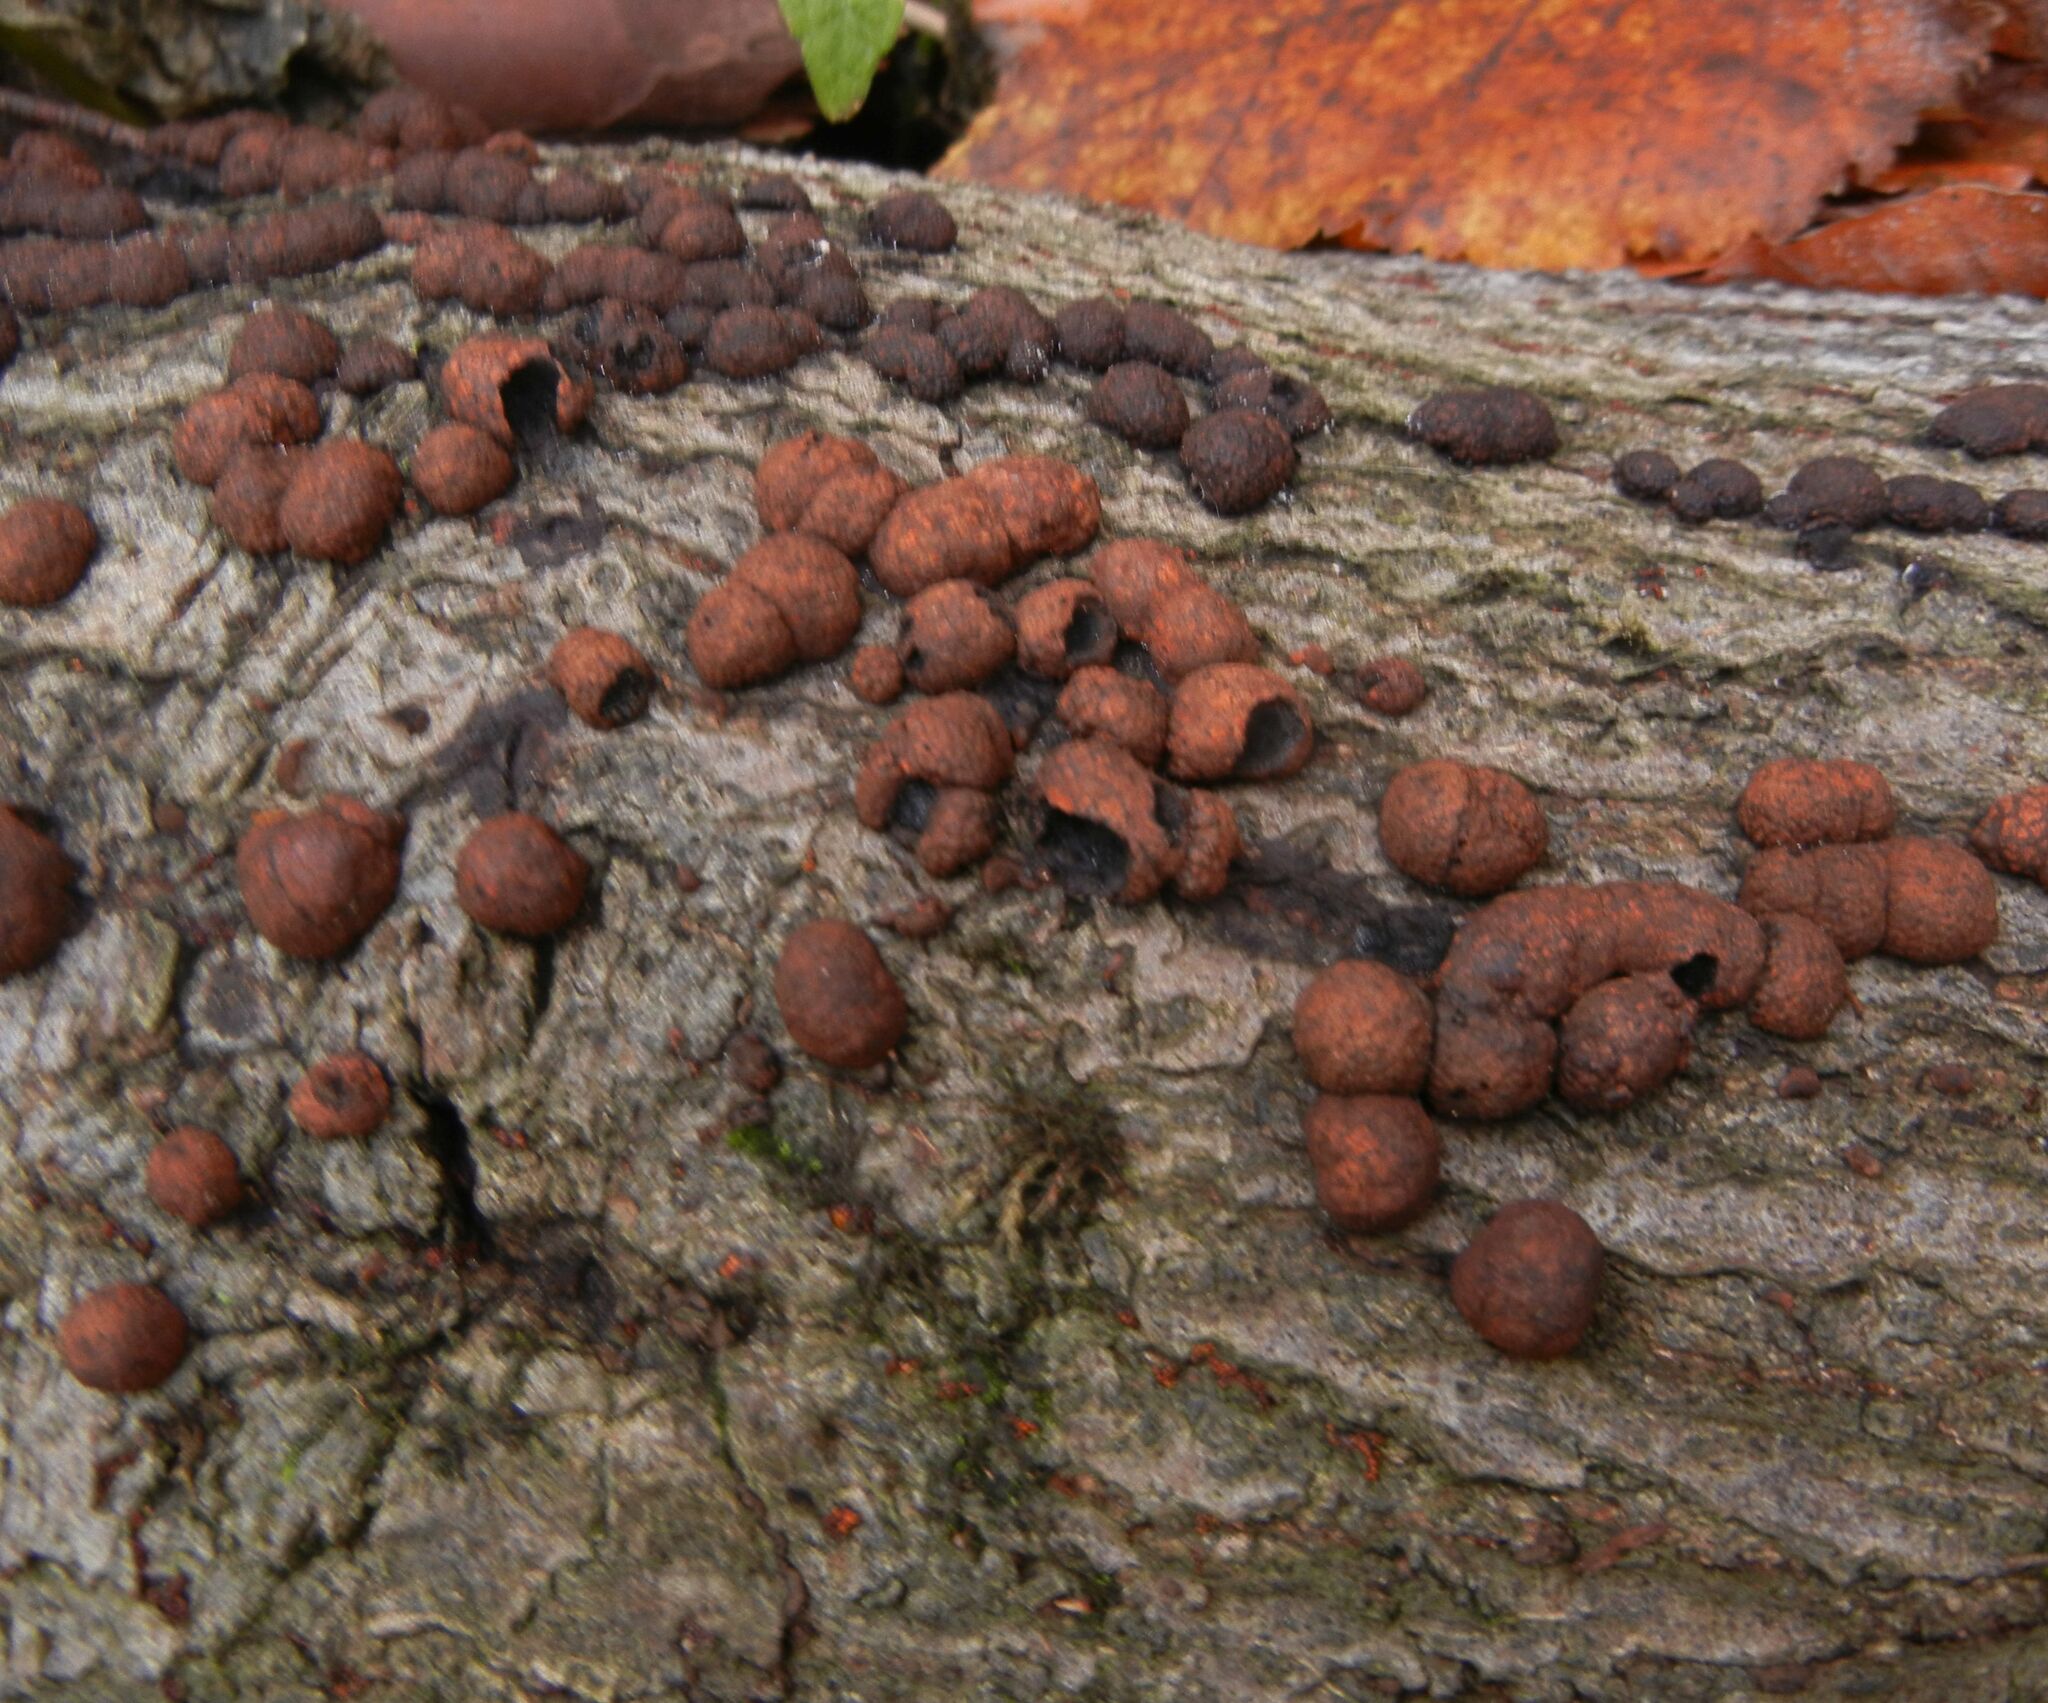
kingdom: Fungi
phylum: Ascomycota
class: Sordariomycetes
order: Xylariales
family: Hypoxylaceae
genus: Hypoxylon
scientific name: Hypoxylon fragiforme
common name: Beech woodwart
